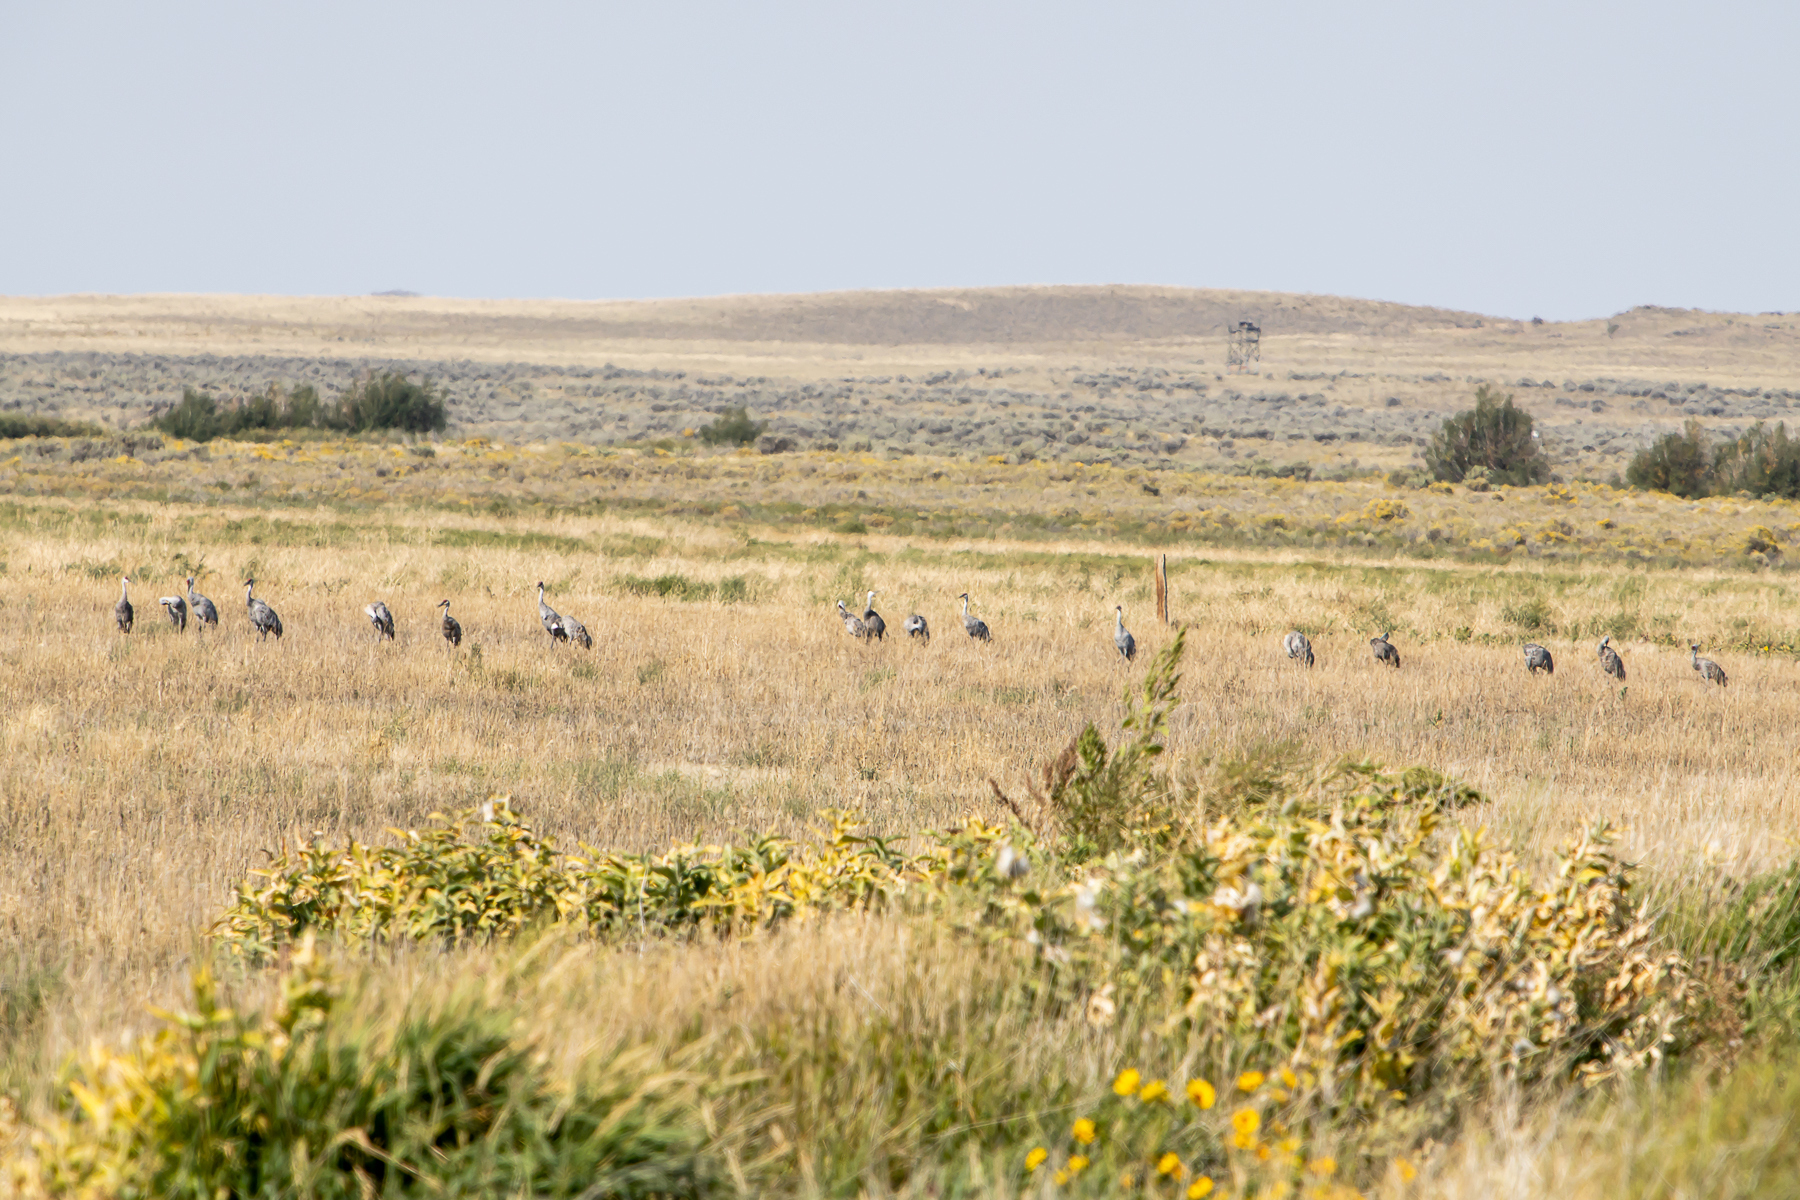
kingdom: Animalia
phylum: Chordata
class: Aves
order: Gruiformes
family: Gruidae
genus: Grus
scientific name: Grus canadensis
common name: Sandhill crane
